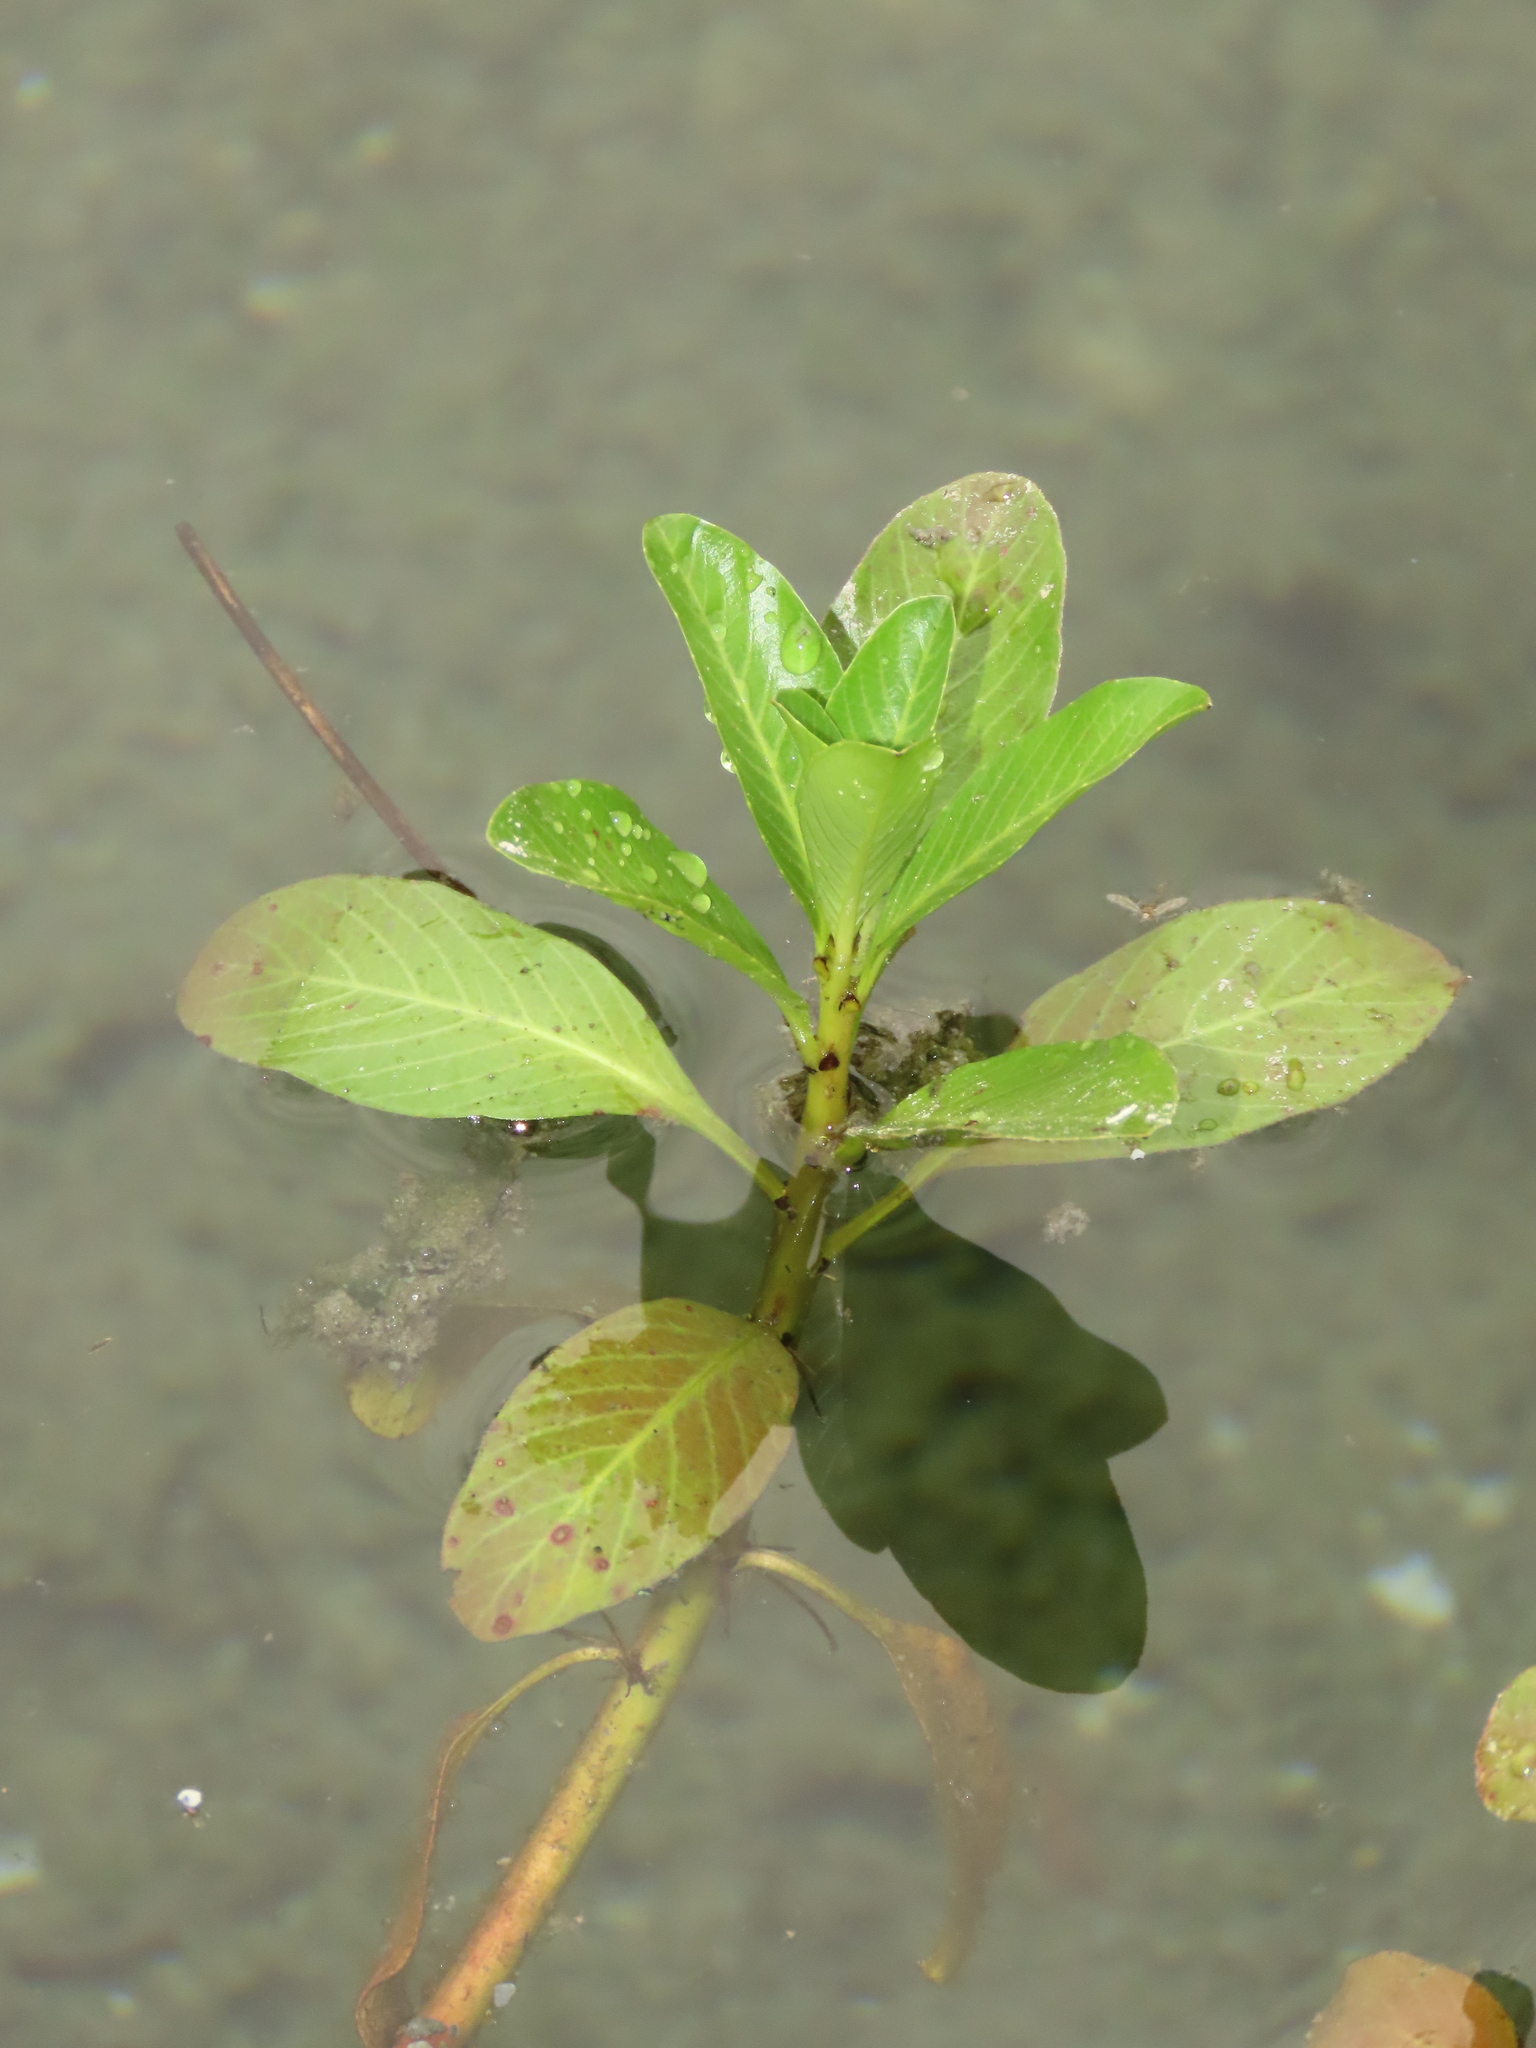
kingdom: Plantae
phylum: Tracheophyta
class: Magnoliopsida
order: Myrtales
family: Onagraceae
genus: Ludwigia
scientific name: Ludwigia taiwanensis
